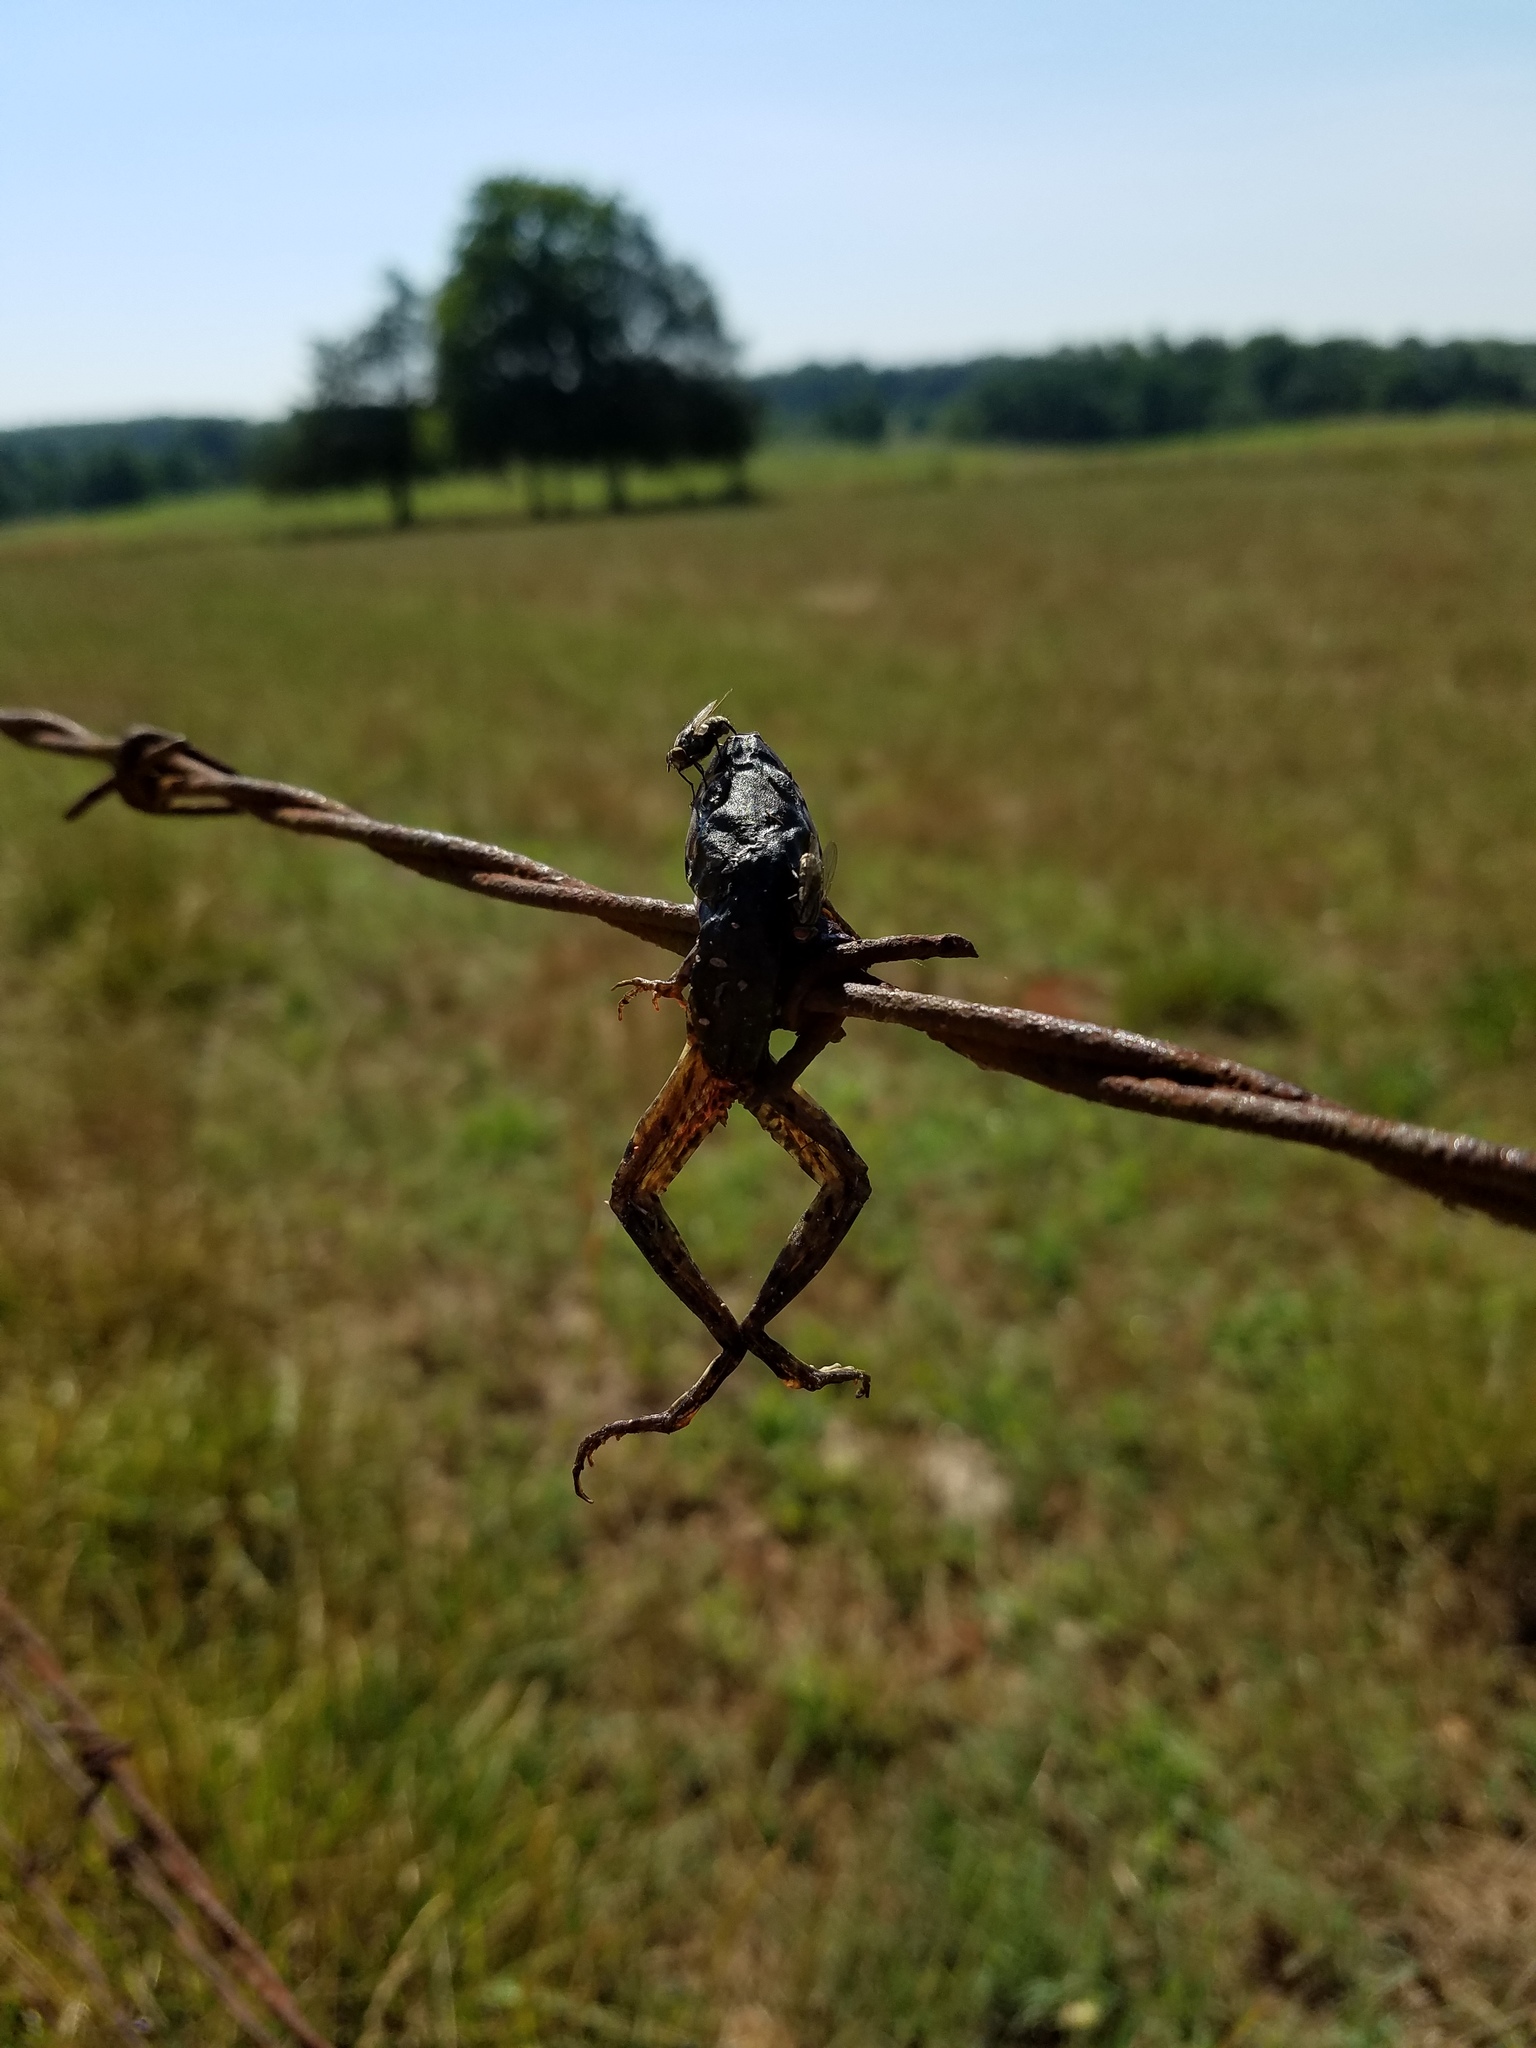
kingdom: Animalia
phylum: Chordata
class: Aves
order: Passeriformes
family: Laniidae
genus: Lanius
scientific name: Lanius ludovicianus
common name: Loggerhead shrike
